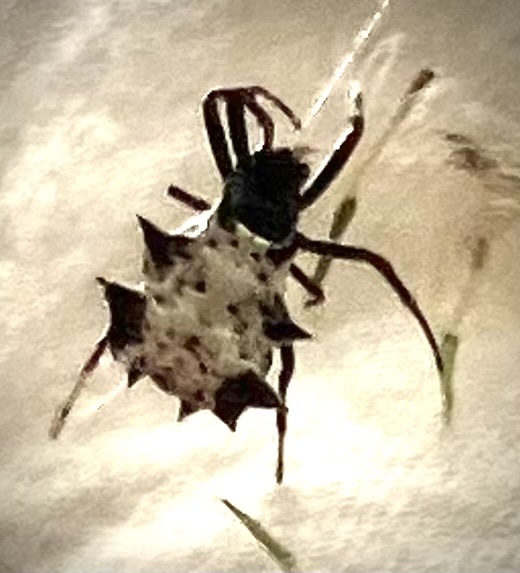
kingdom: Animalia
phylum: Arthropoda
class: Arachnida
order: Araneae
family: Araneidae
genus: Micrathena
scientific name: Micrathena gracilis
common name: Orb weavers
